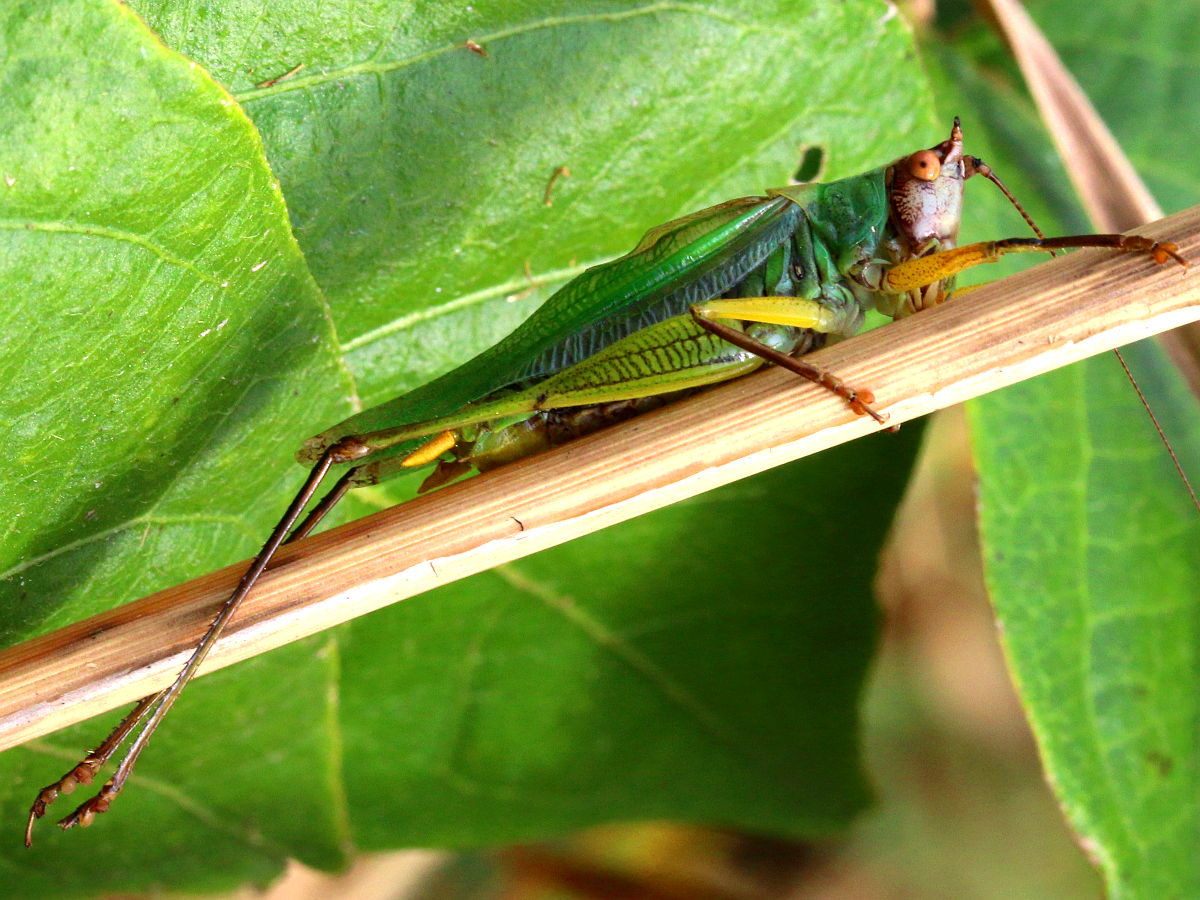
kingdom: Animalia
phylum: Arthropoda
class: Insecta
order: Orthoptera
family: Tettigoniidae
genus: Orchelimum
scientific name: Orchelimum nigripes
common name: Black-legged meadow katydid
